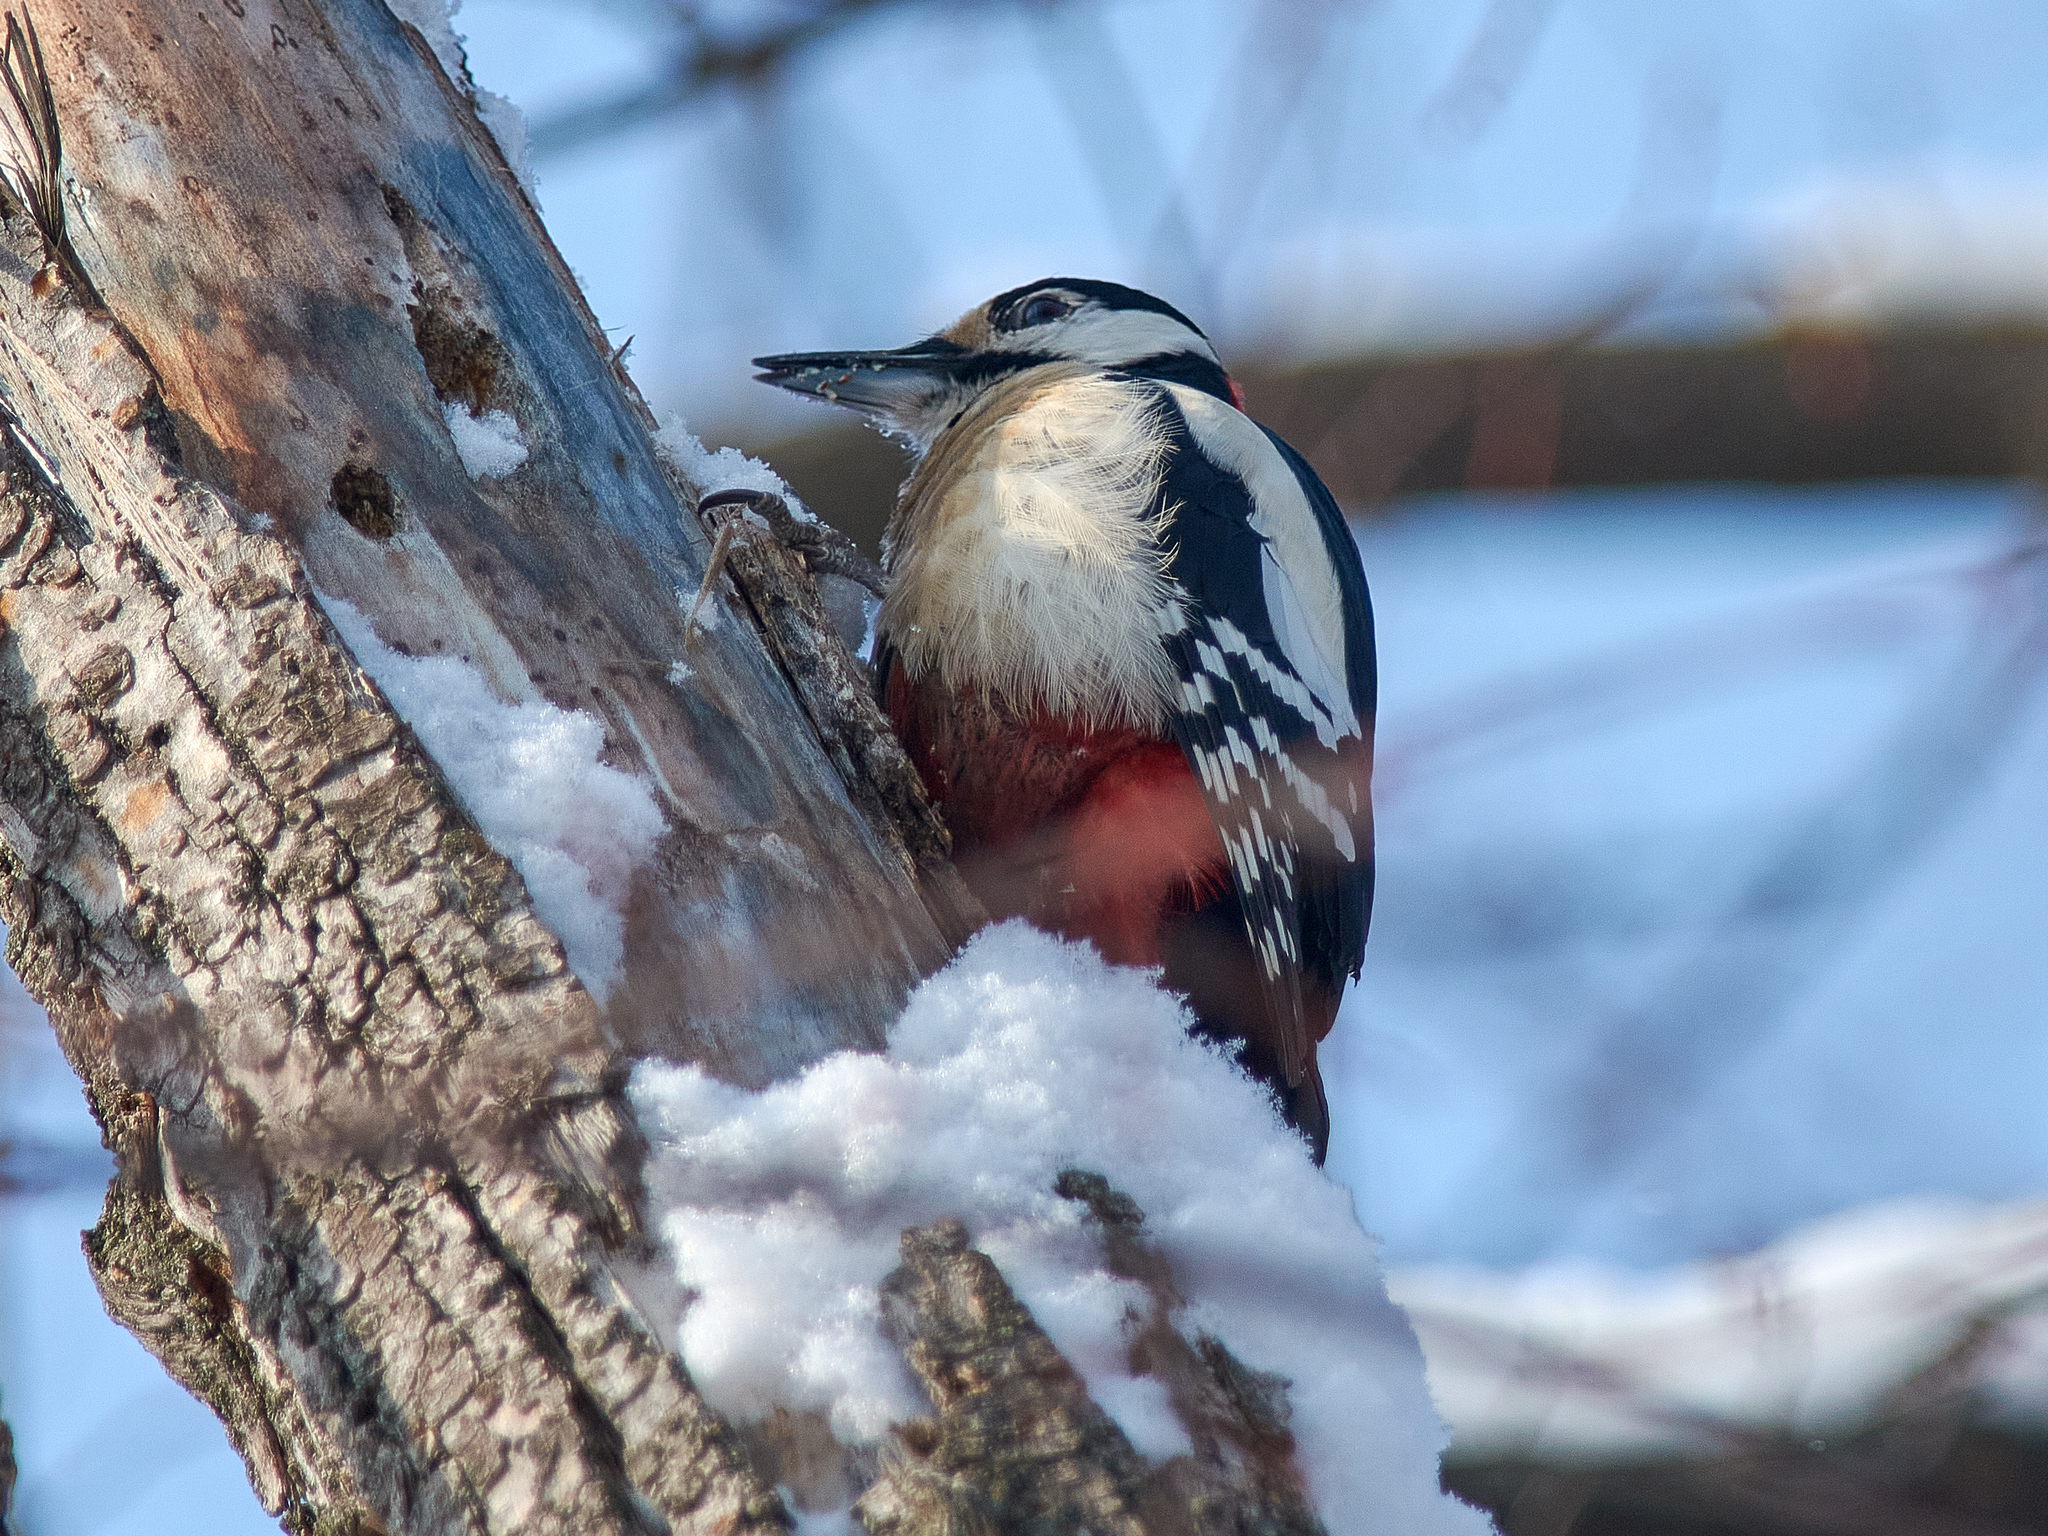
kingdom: Animalia
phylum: Chordata
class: Aves
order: Piciformes
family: Picidae
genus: Dendrocopos
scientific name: Dendrocopos major
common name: Great spotted woodpecker
